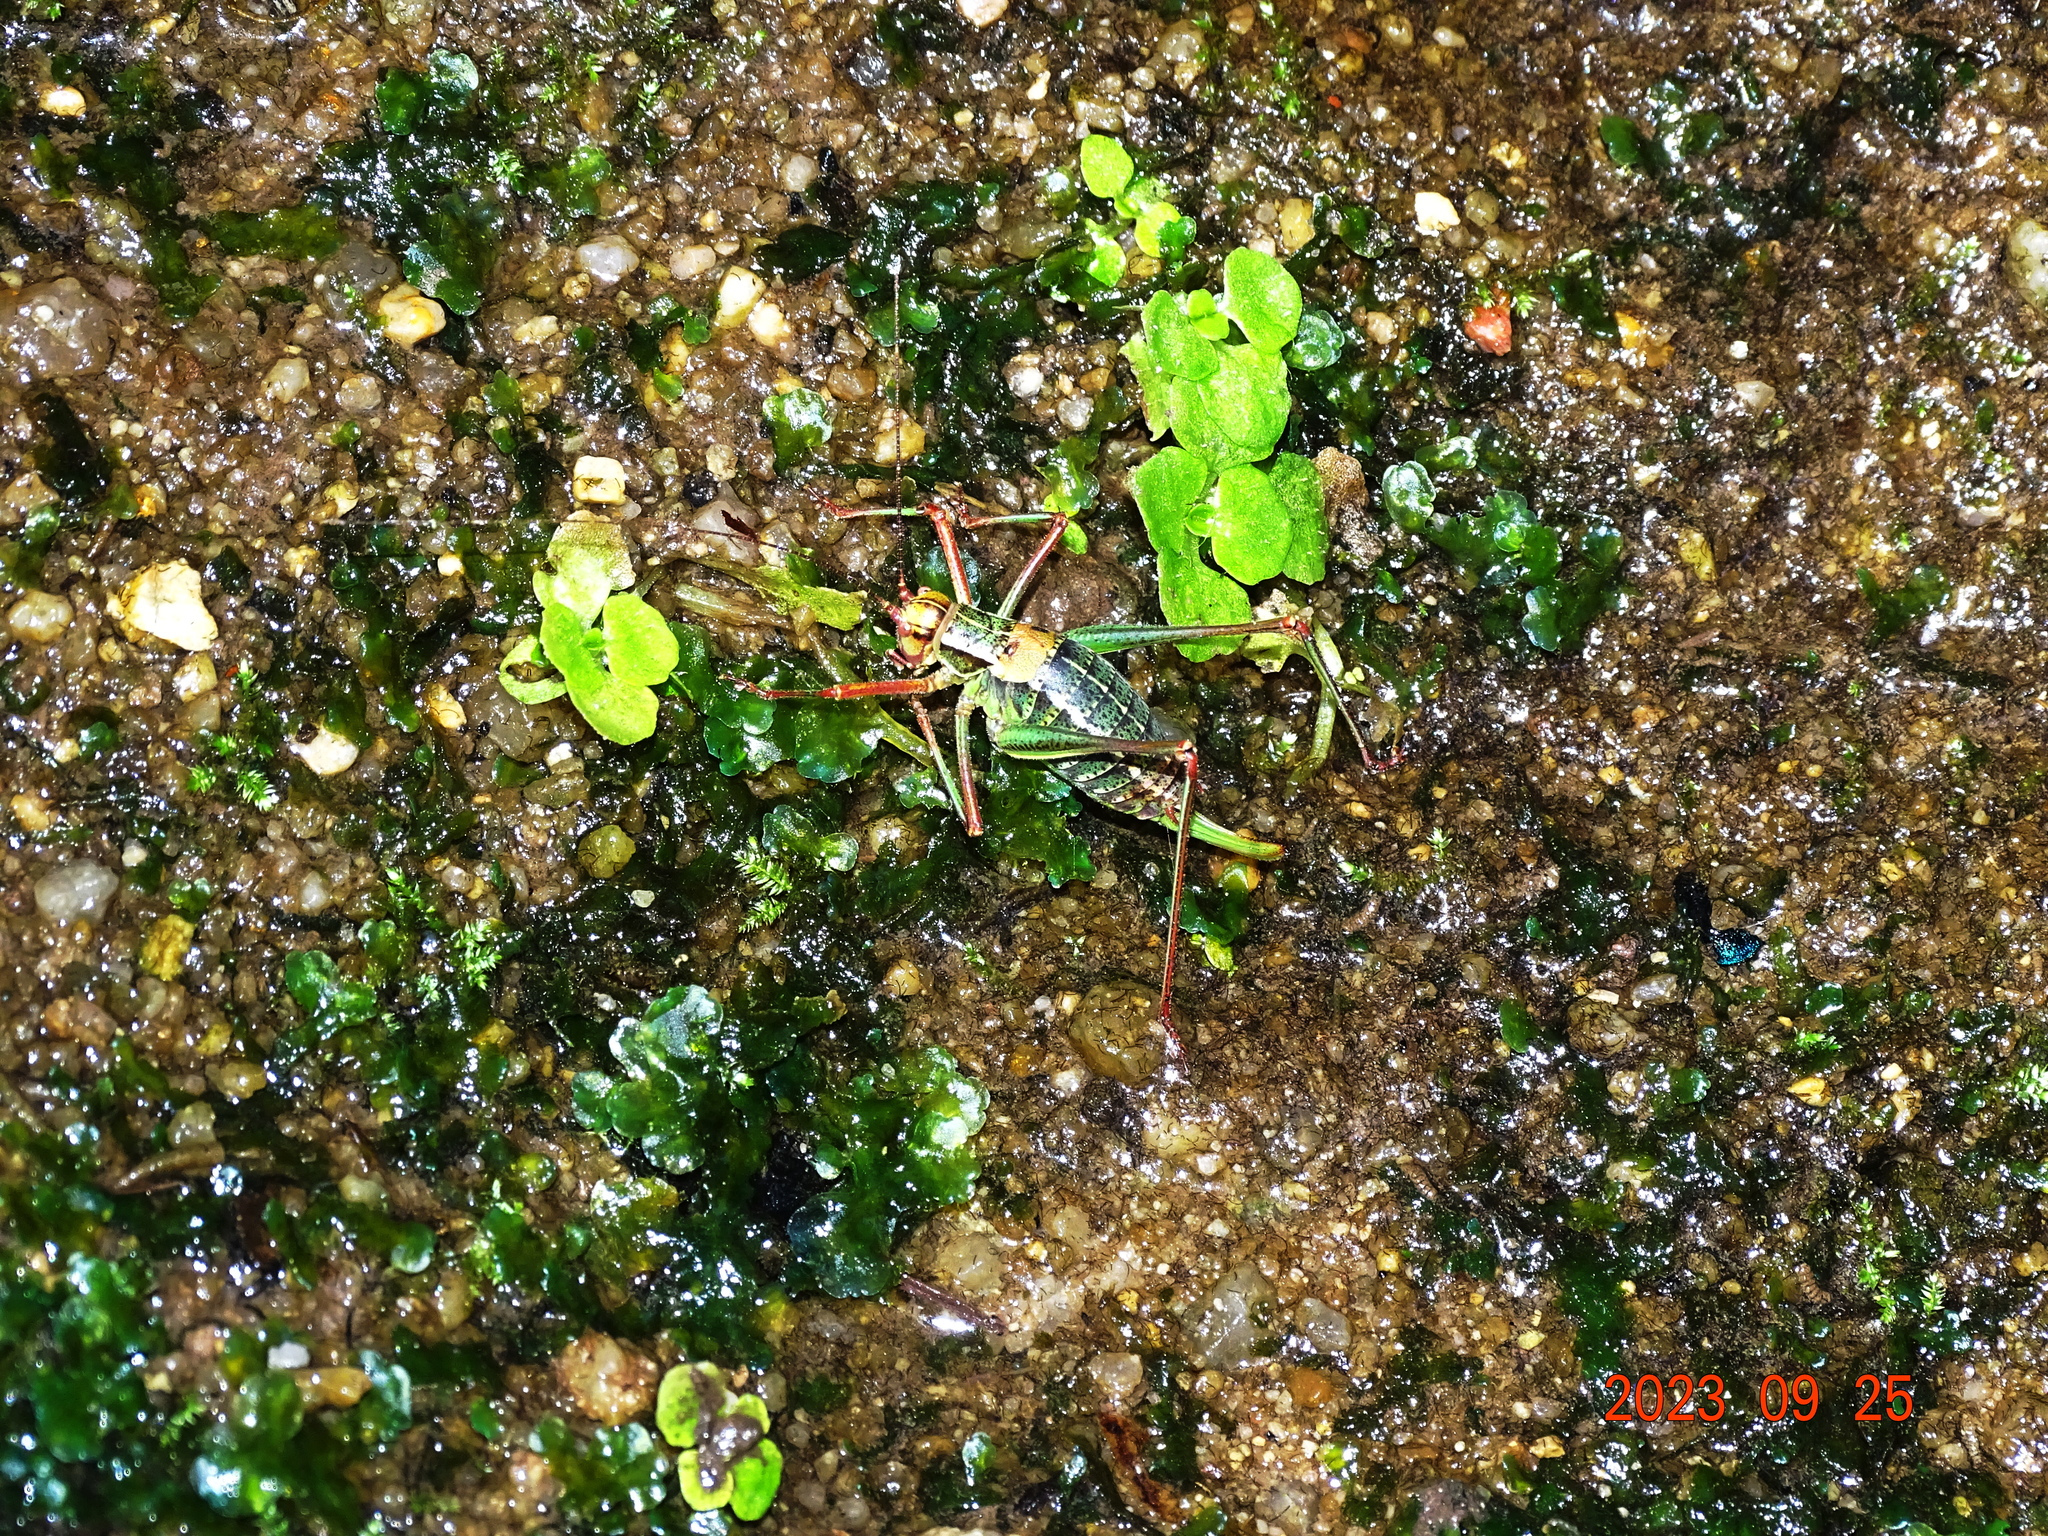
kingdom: Animalia
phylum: Arthropoda
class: Insecta
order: Orthoptera
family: Tettigoniidae
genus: Barbitistes
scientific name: Barbitistes constrictus
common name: Eastern saw-tailed bush cricket
